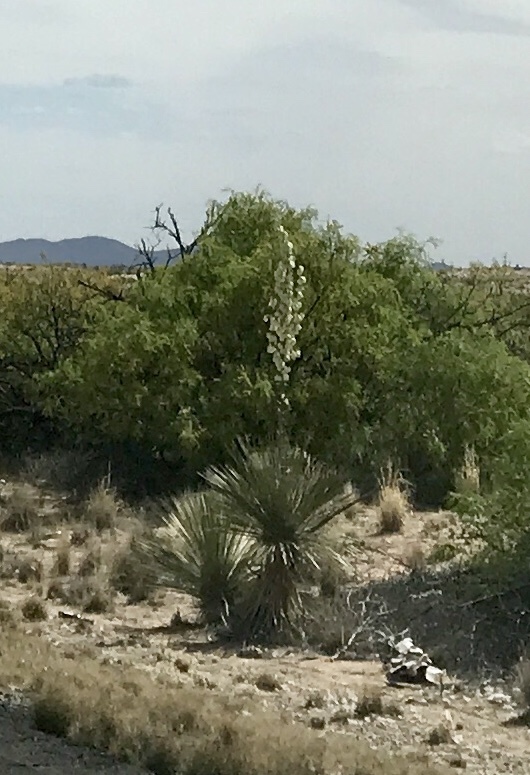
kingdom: Plantae
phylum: Tracheophyta
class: Liliopsida
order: Asparagales
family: Asparagaceae
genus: Yucca
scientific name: Yucca elata
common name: Palmella
